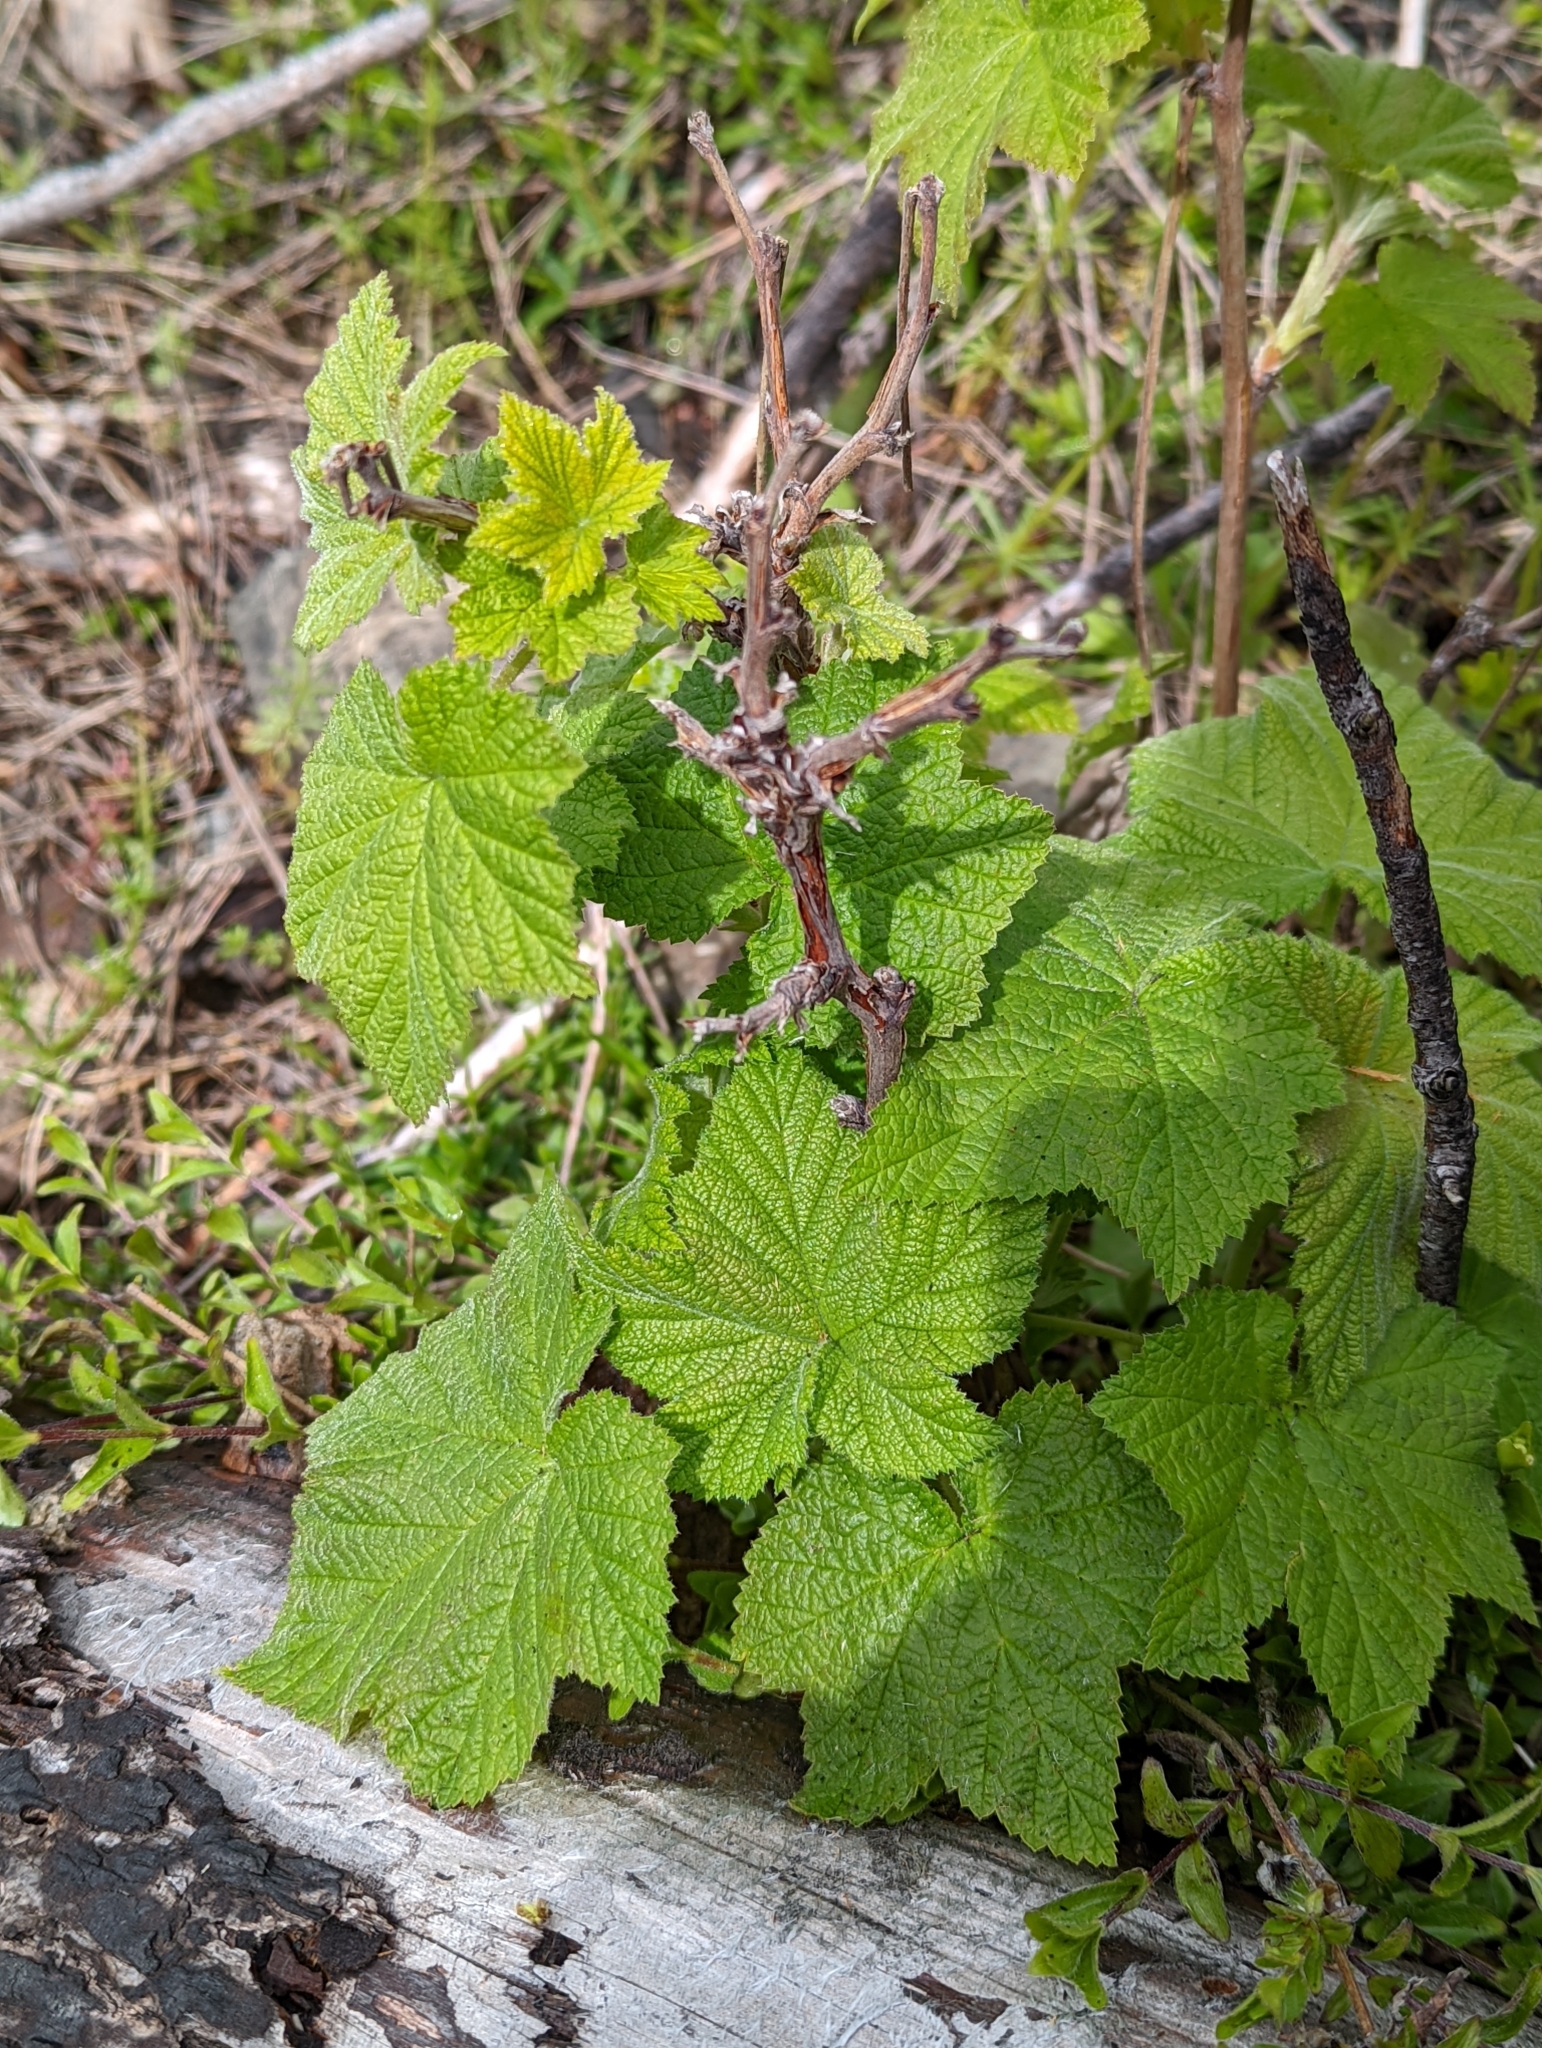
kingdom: Plantae
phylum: Tracheophyta
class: Magnoliopsida
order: Rosales
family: Rosaceae
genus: Rubus
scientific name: Rubus parviflorus
